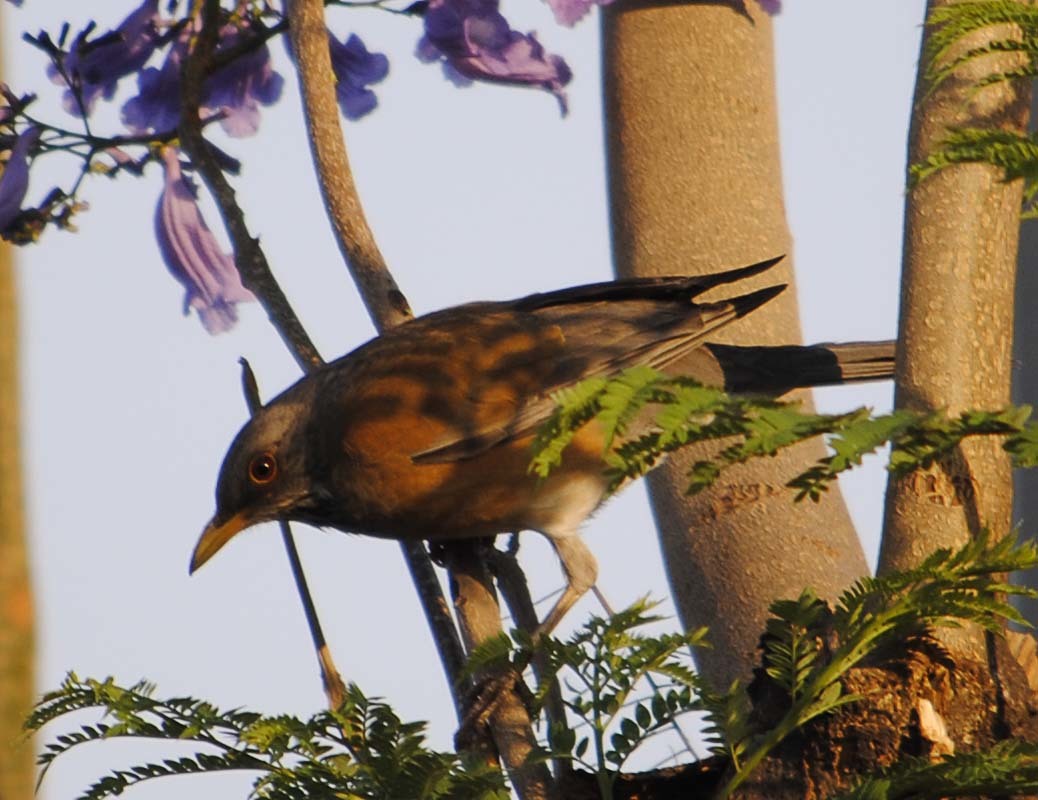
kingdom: Animalia
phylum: Chordata
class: Aves
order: Passeriformes
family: Turdidae
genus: Turdus
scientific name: Turdus rufopalliatus
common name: Rufous-backed robin
